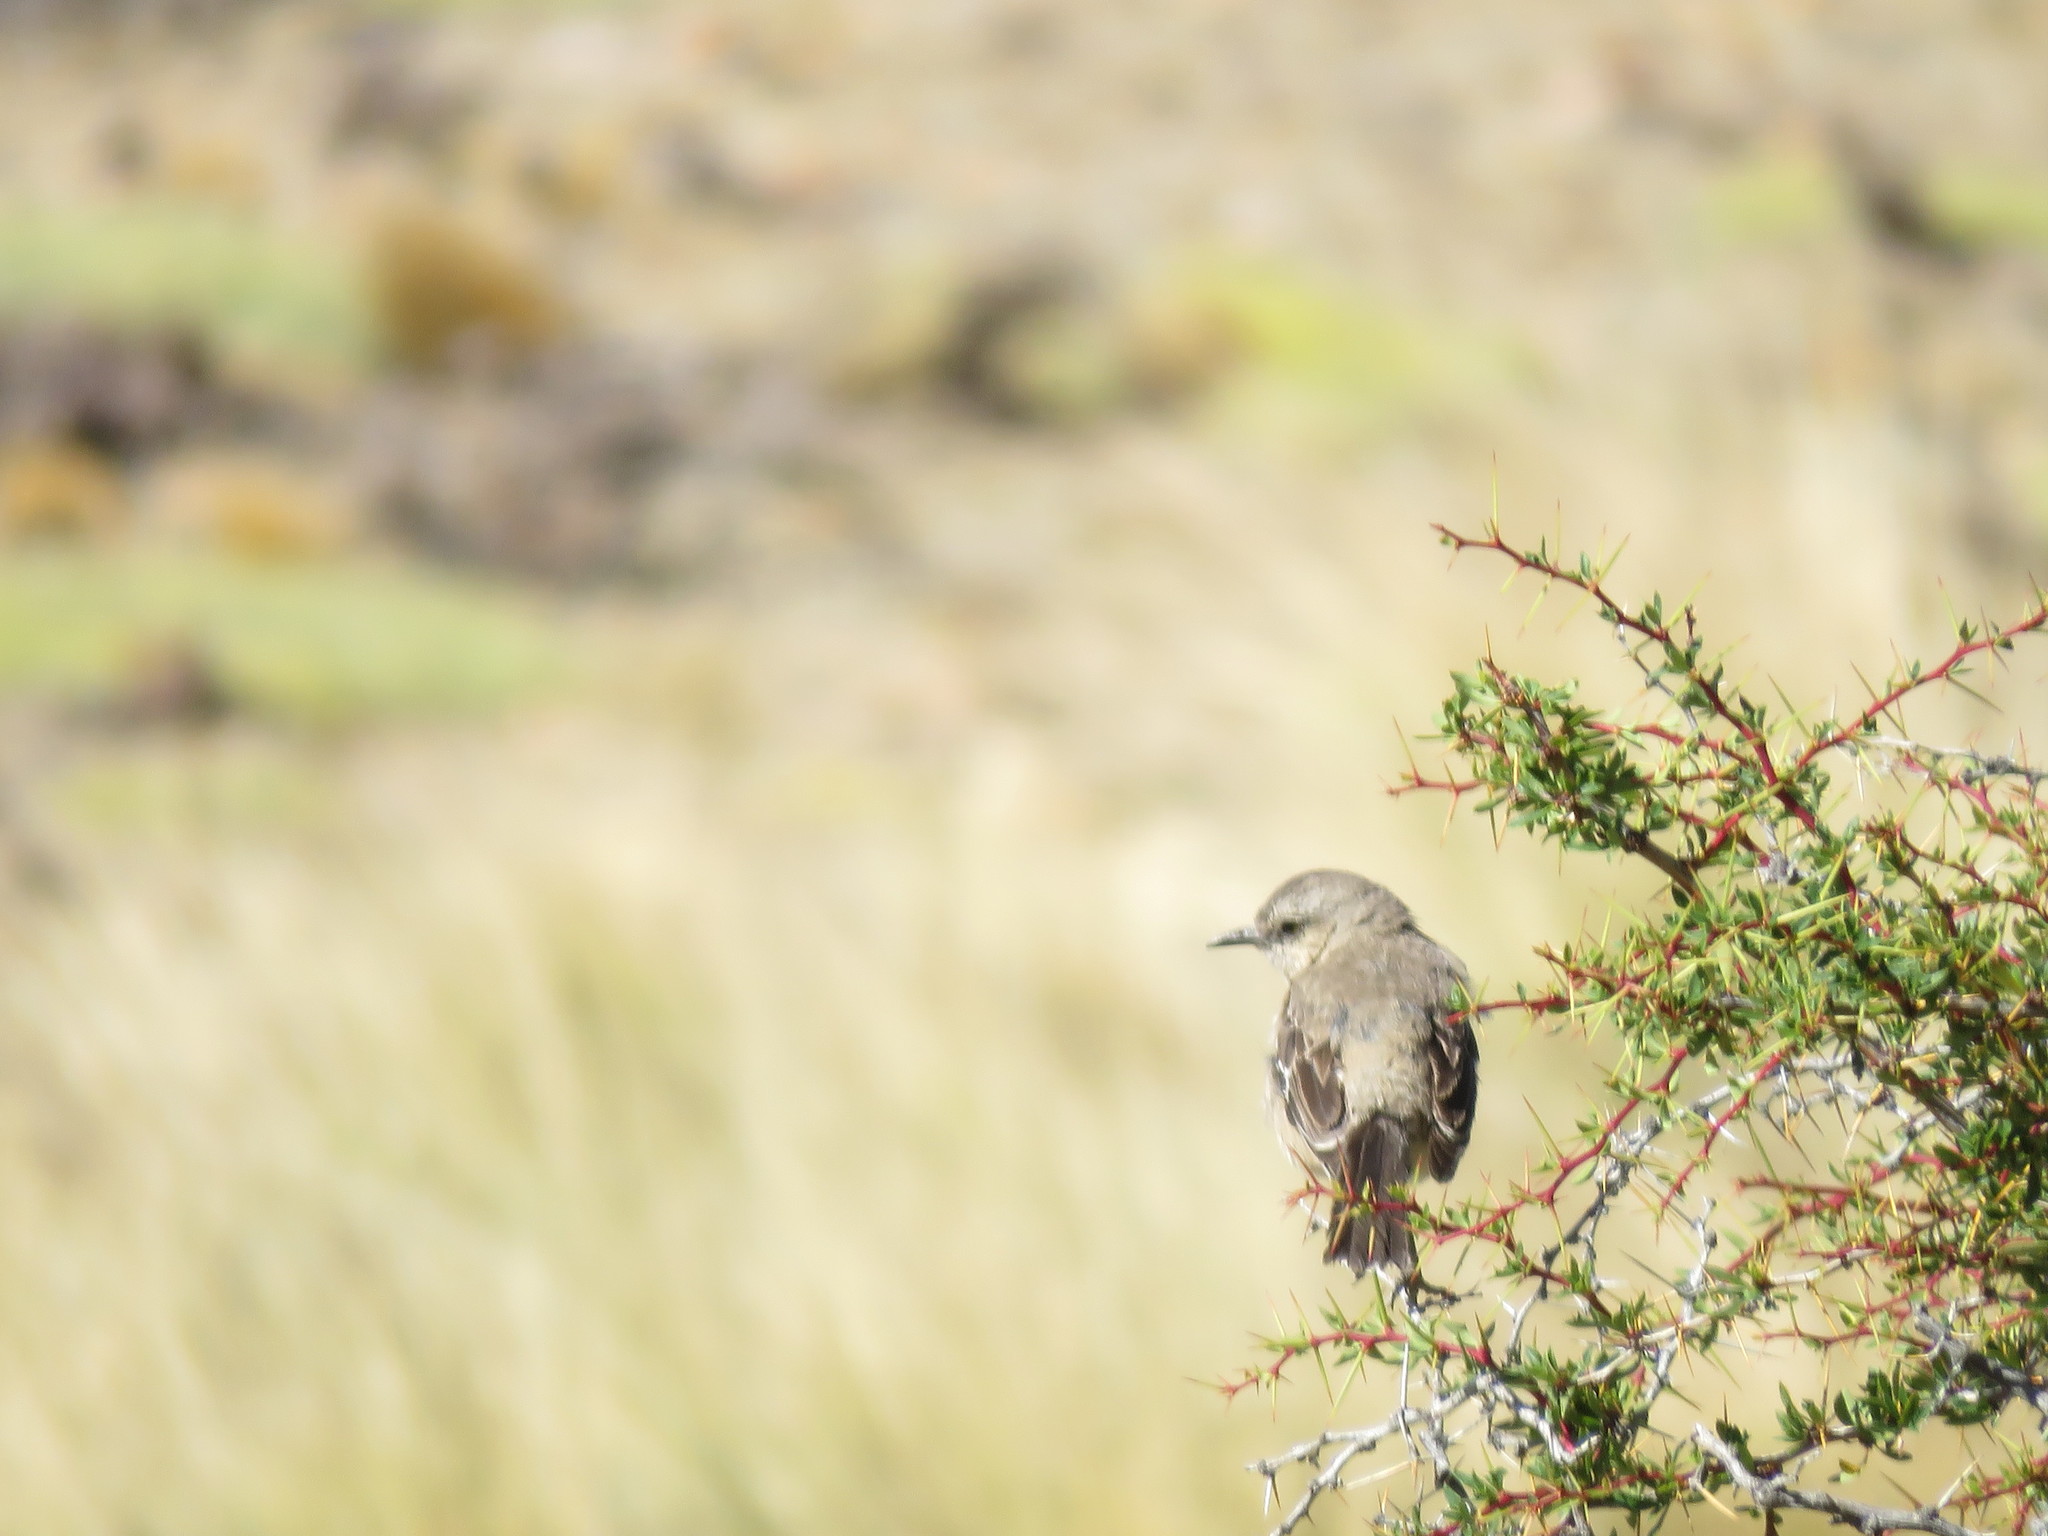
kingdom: Animalia
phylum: Chordata
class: Aves
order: Passeriformes
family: Mimidae
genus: Mimus
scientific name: Mimus patagonicus
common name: Patagonian mockingbird
